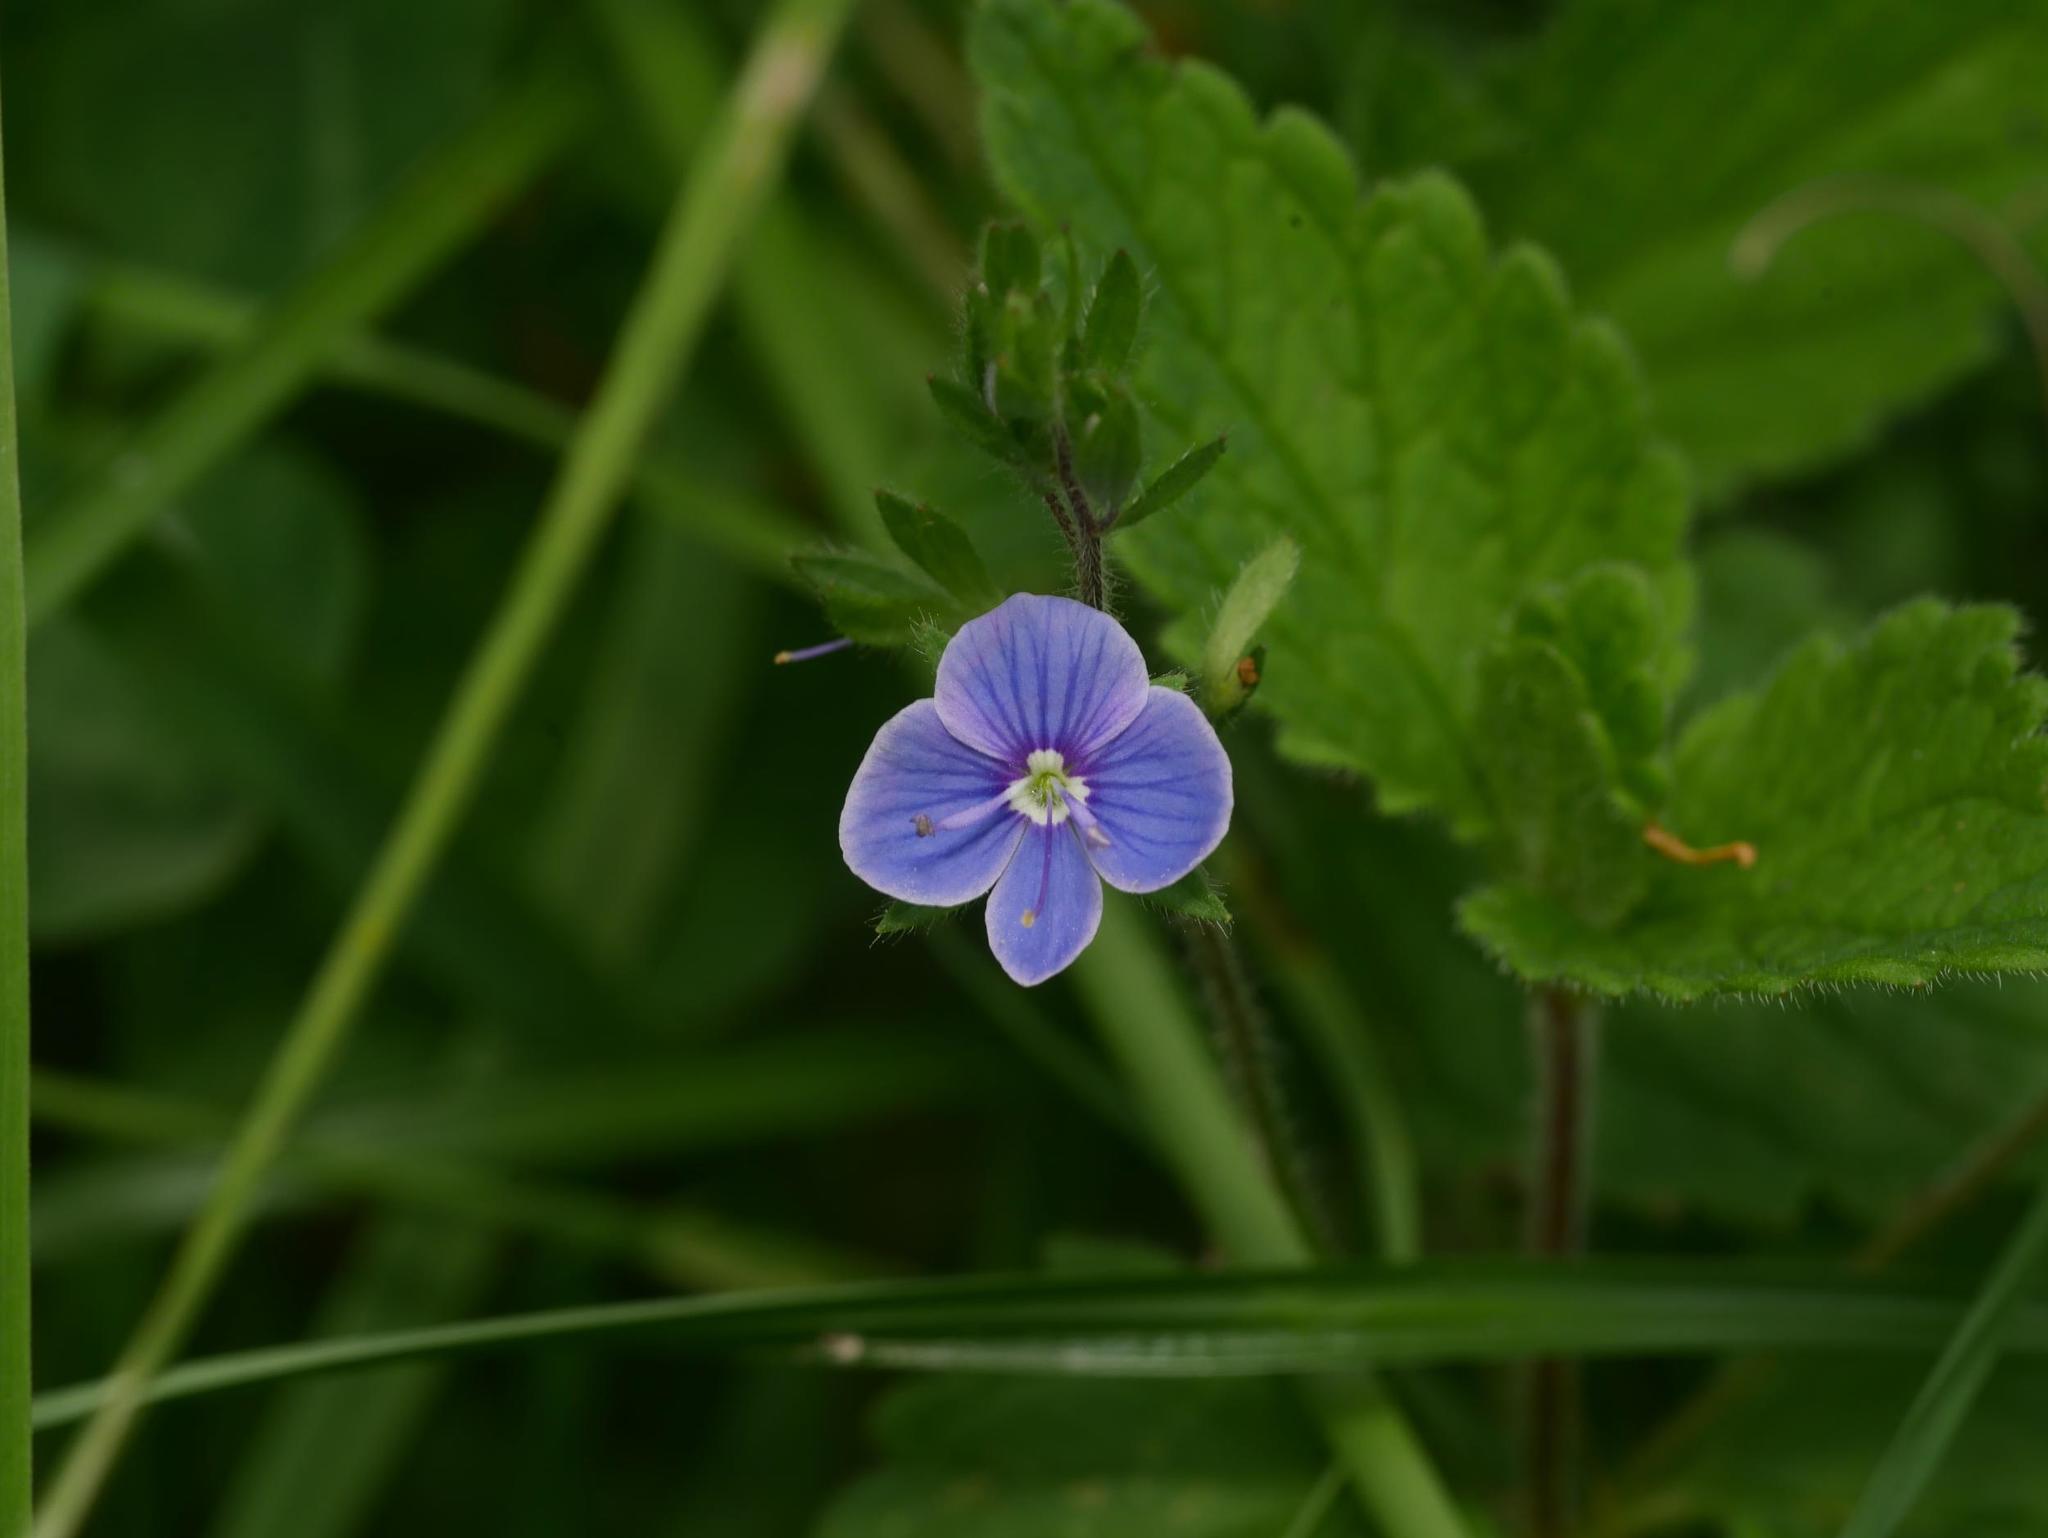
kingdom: Plantae
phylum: Tracheophyta
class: Magnoliopsida
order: Lamiales
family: Plantaginaceae
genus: Veronica
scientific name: Veronica chamaedrys
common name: Germander speedwell
